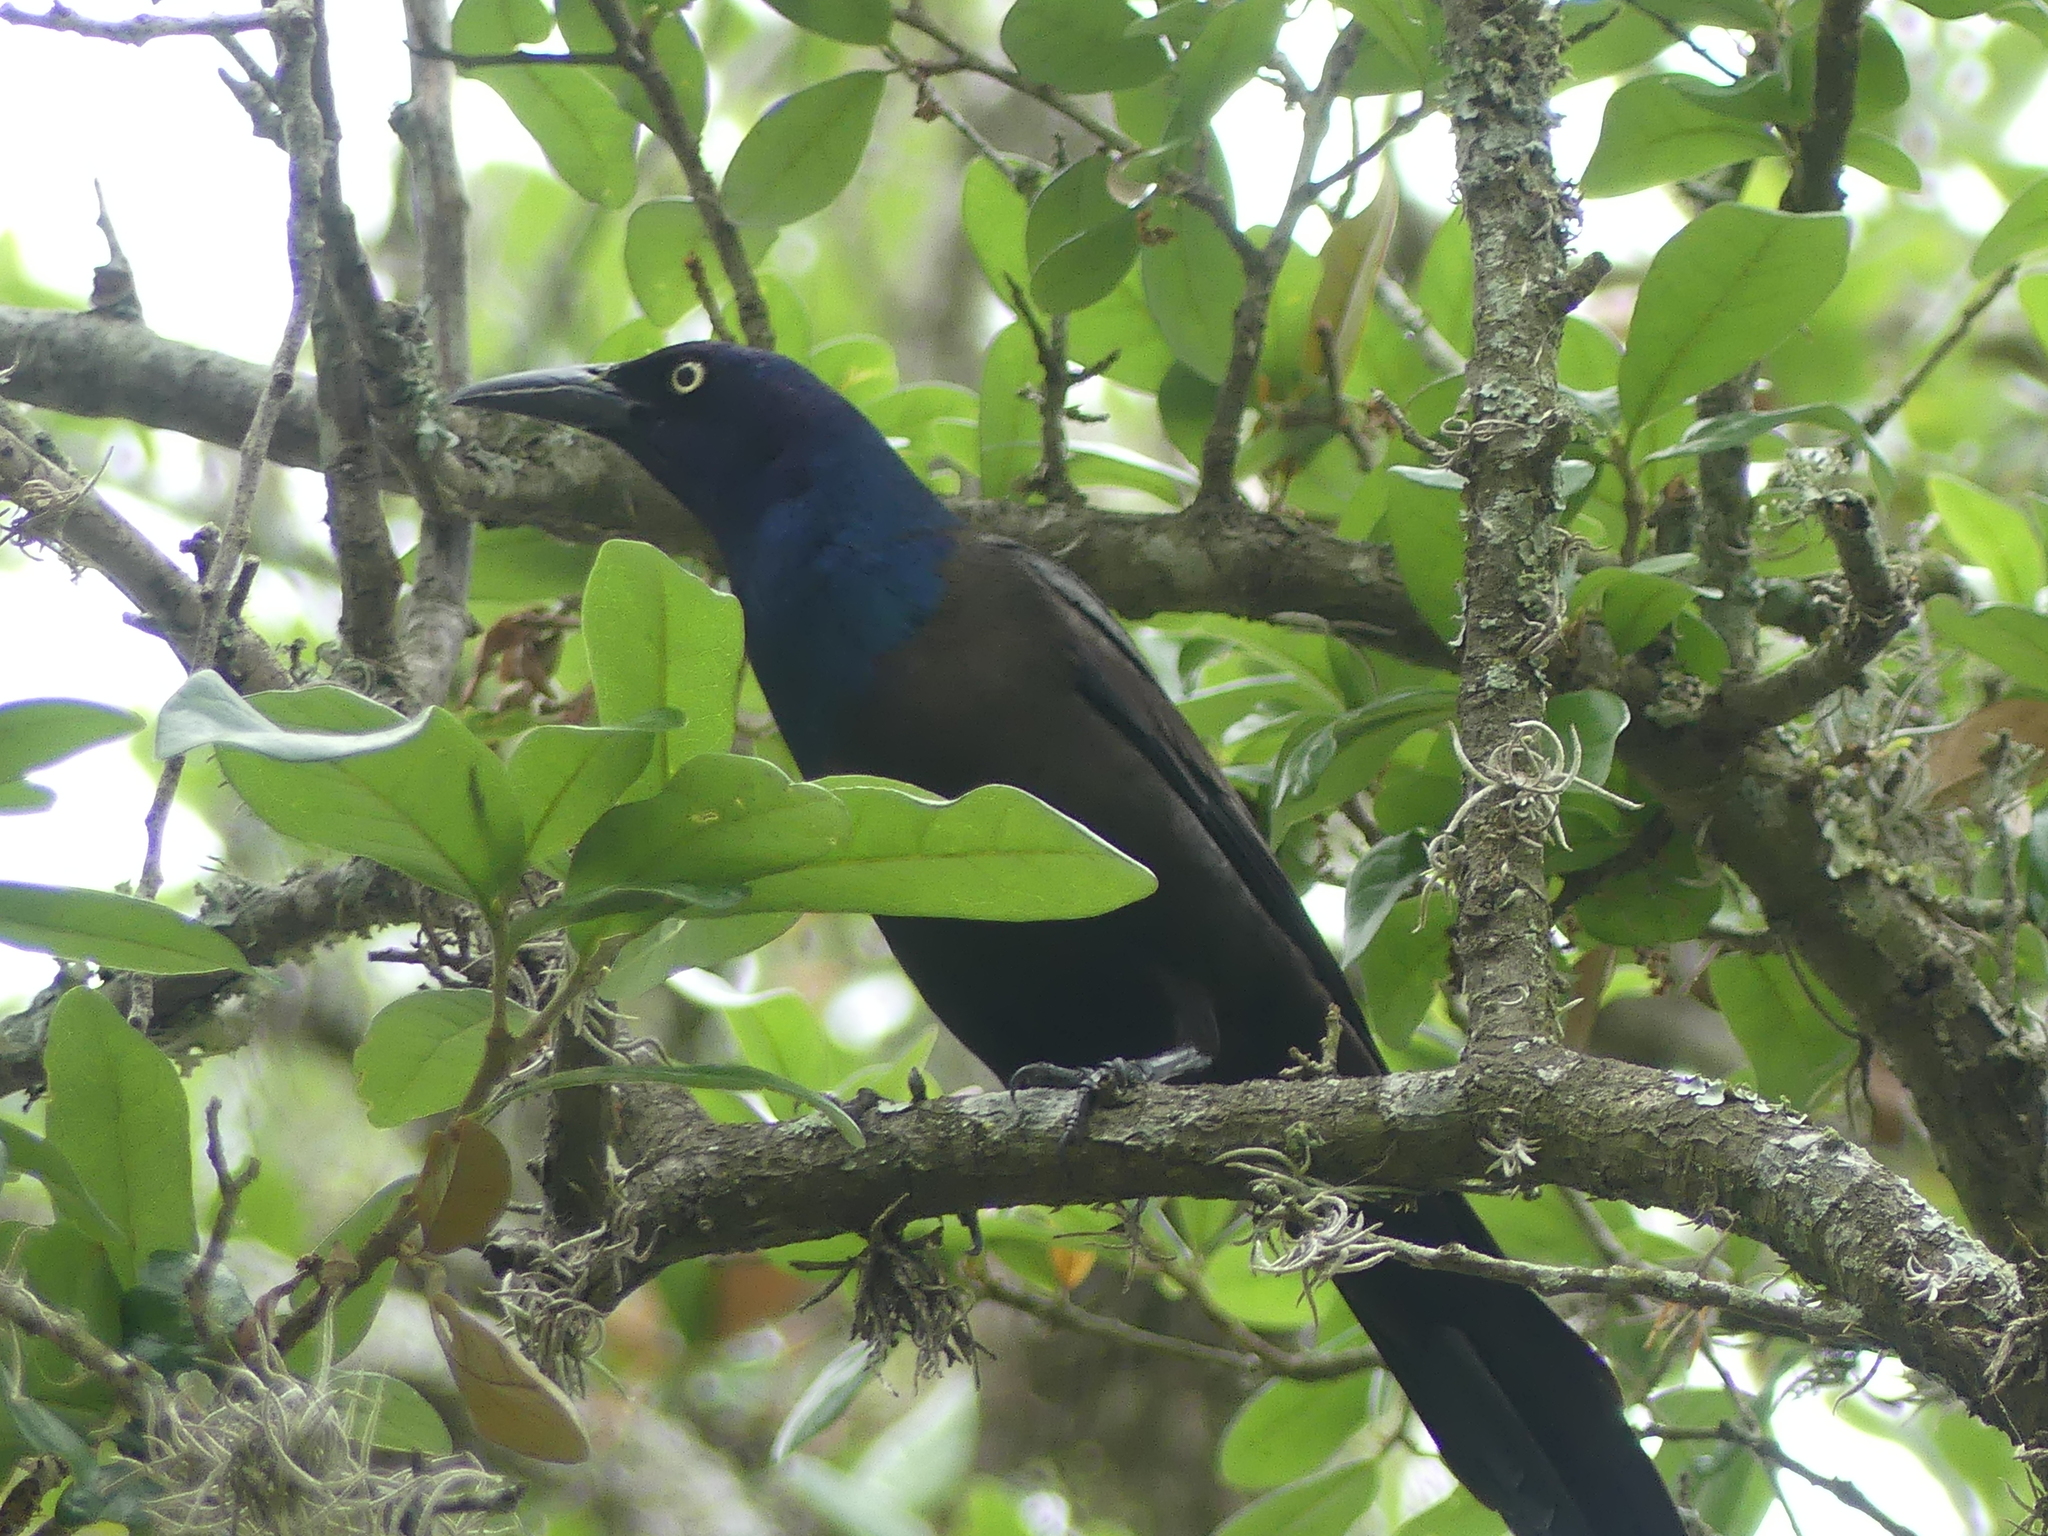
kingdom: Animalia
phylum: Chordata
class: Aves
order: Passeriformes
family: Icteridae
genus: Quiscalus
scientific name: Quiscalus quiscula
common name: Common grackle
